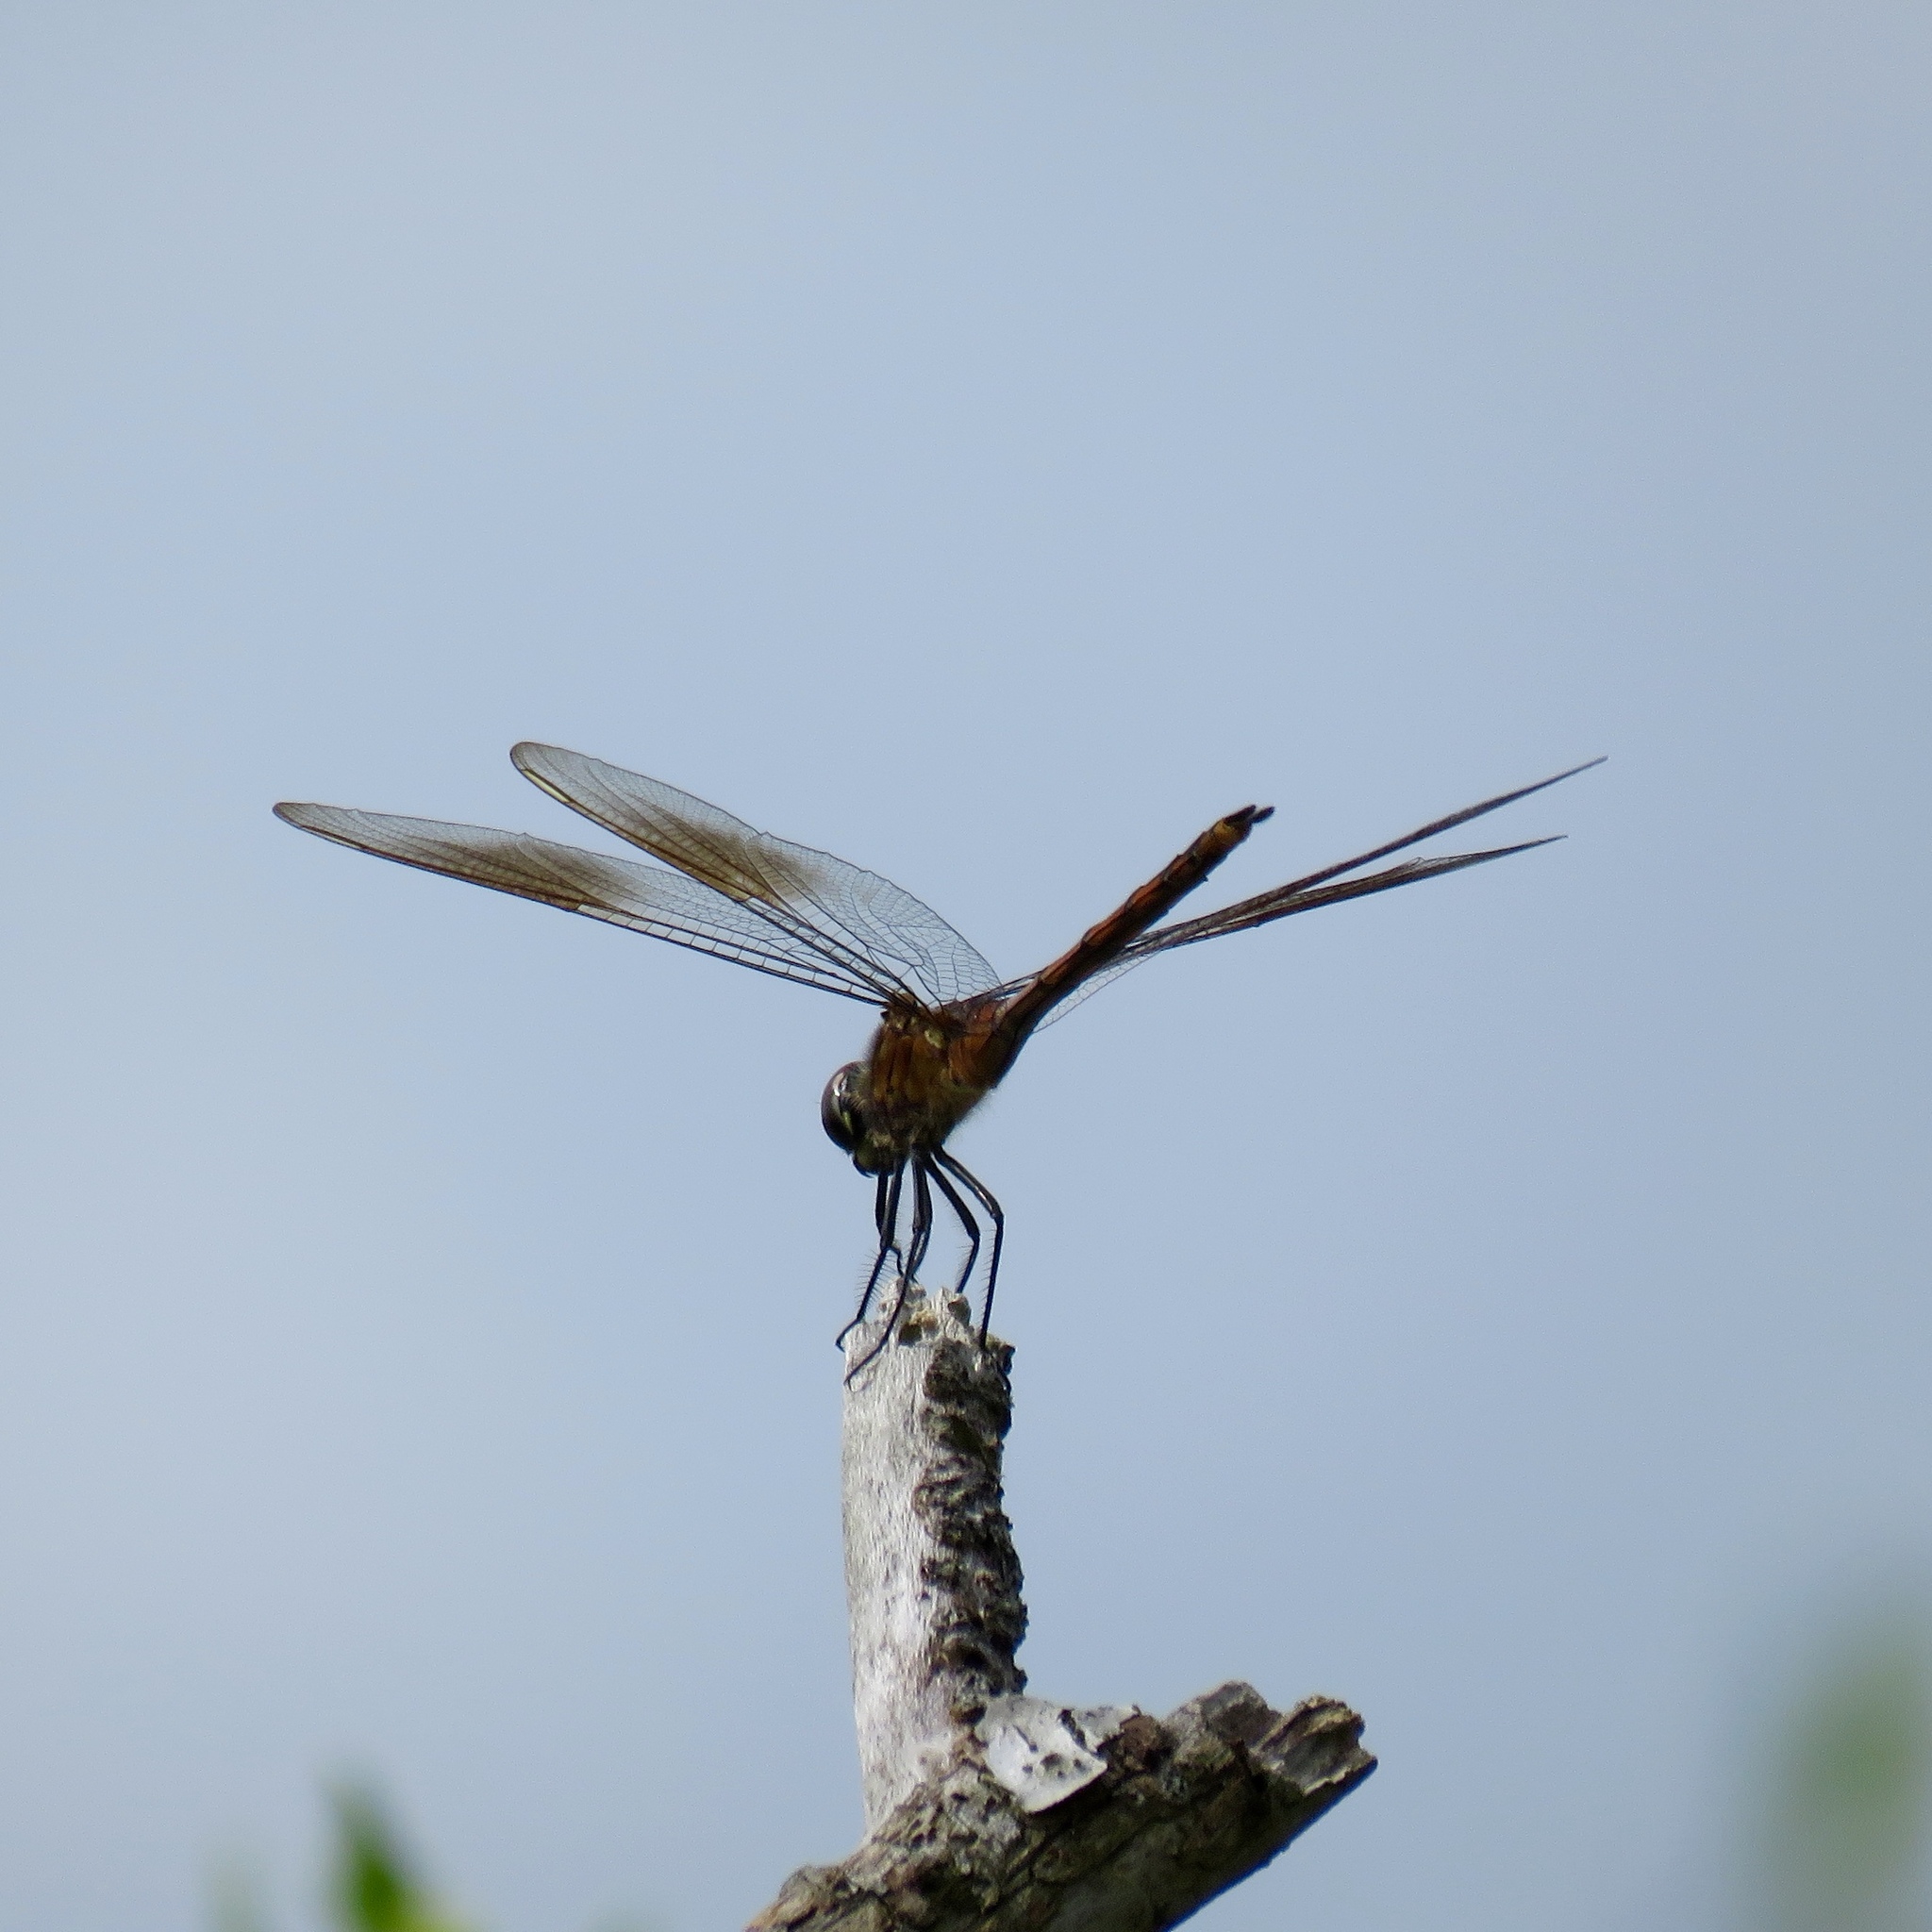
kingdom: Animalia
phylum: Arthropoda
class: Insecta
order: Odonata
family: Libellulidae
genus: Brachymesia
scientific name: Brachymesia gravida
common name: Four-spotted pennant
